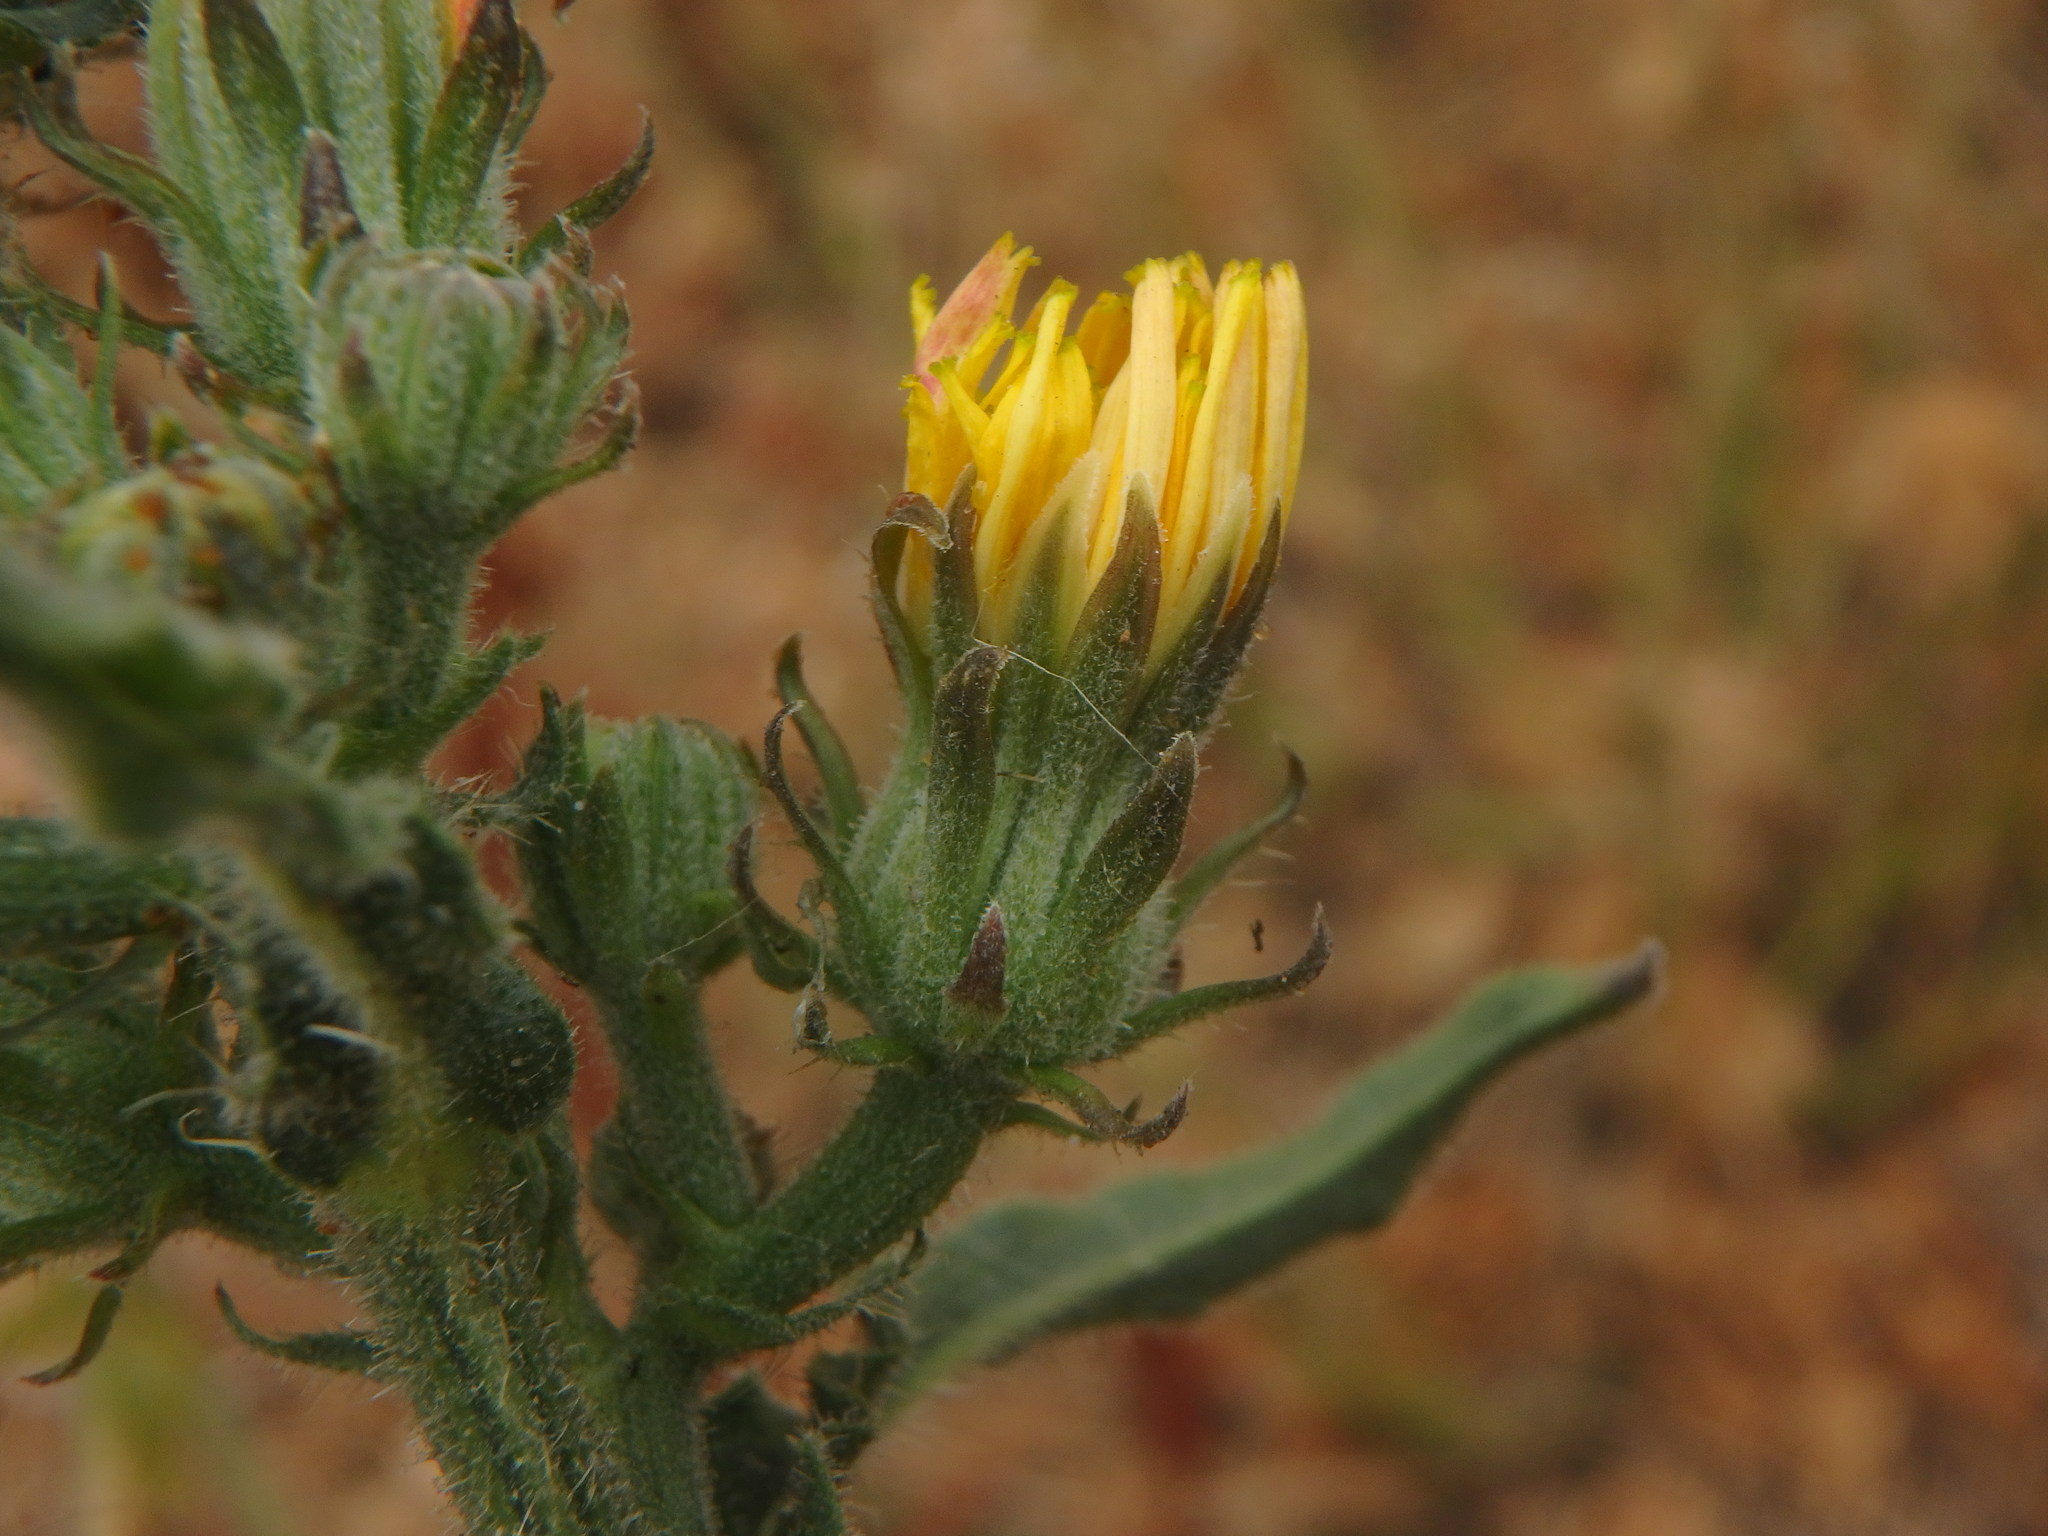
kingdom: Plantae
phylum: Tracheophyta
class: Magnoliopsida
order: Asterales
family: Asteraceae
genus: Picris
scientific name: Picris hieracioides
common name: Hawkweed oxtongue
